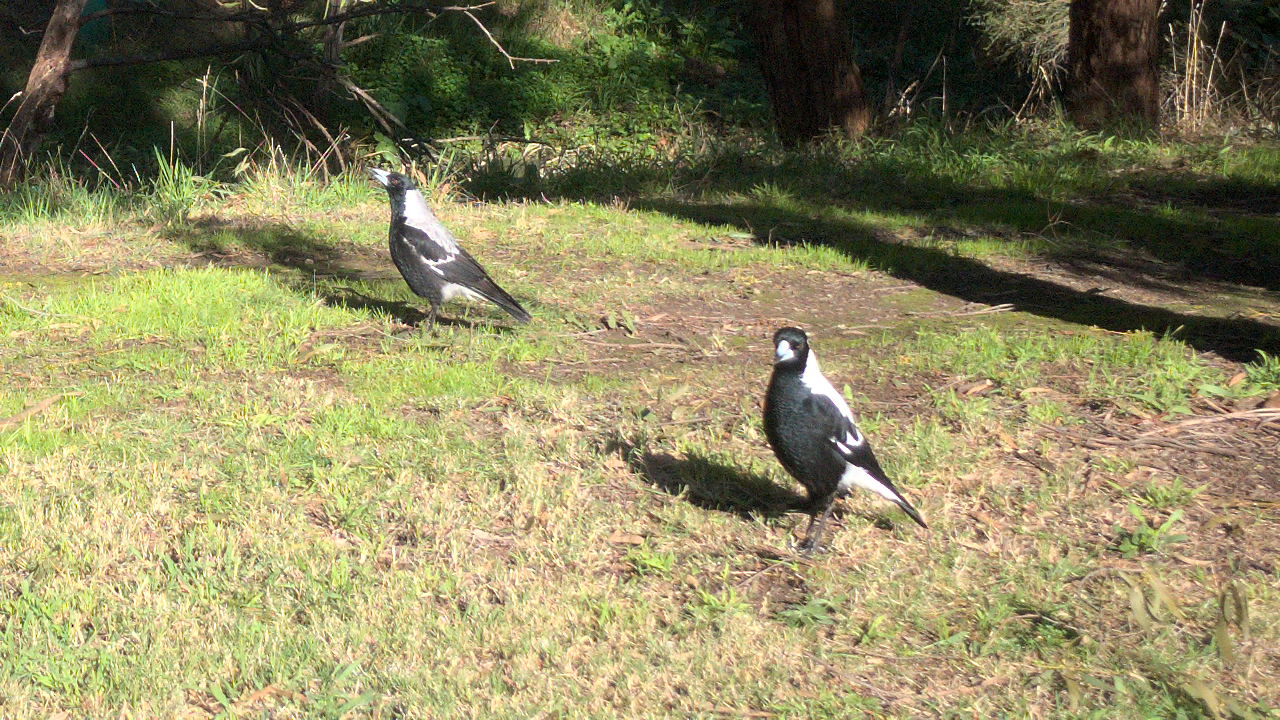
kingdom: Animalia
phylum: Chordata
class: Aves
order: Passeriformes
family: Cracticidae
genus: Gymnorhina
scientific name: Gymnorhina tibicen
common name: Australian magpie
